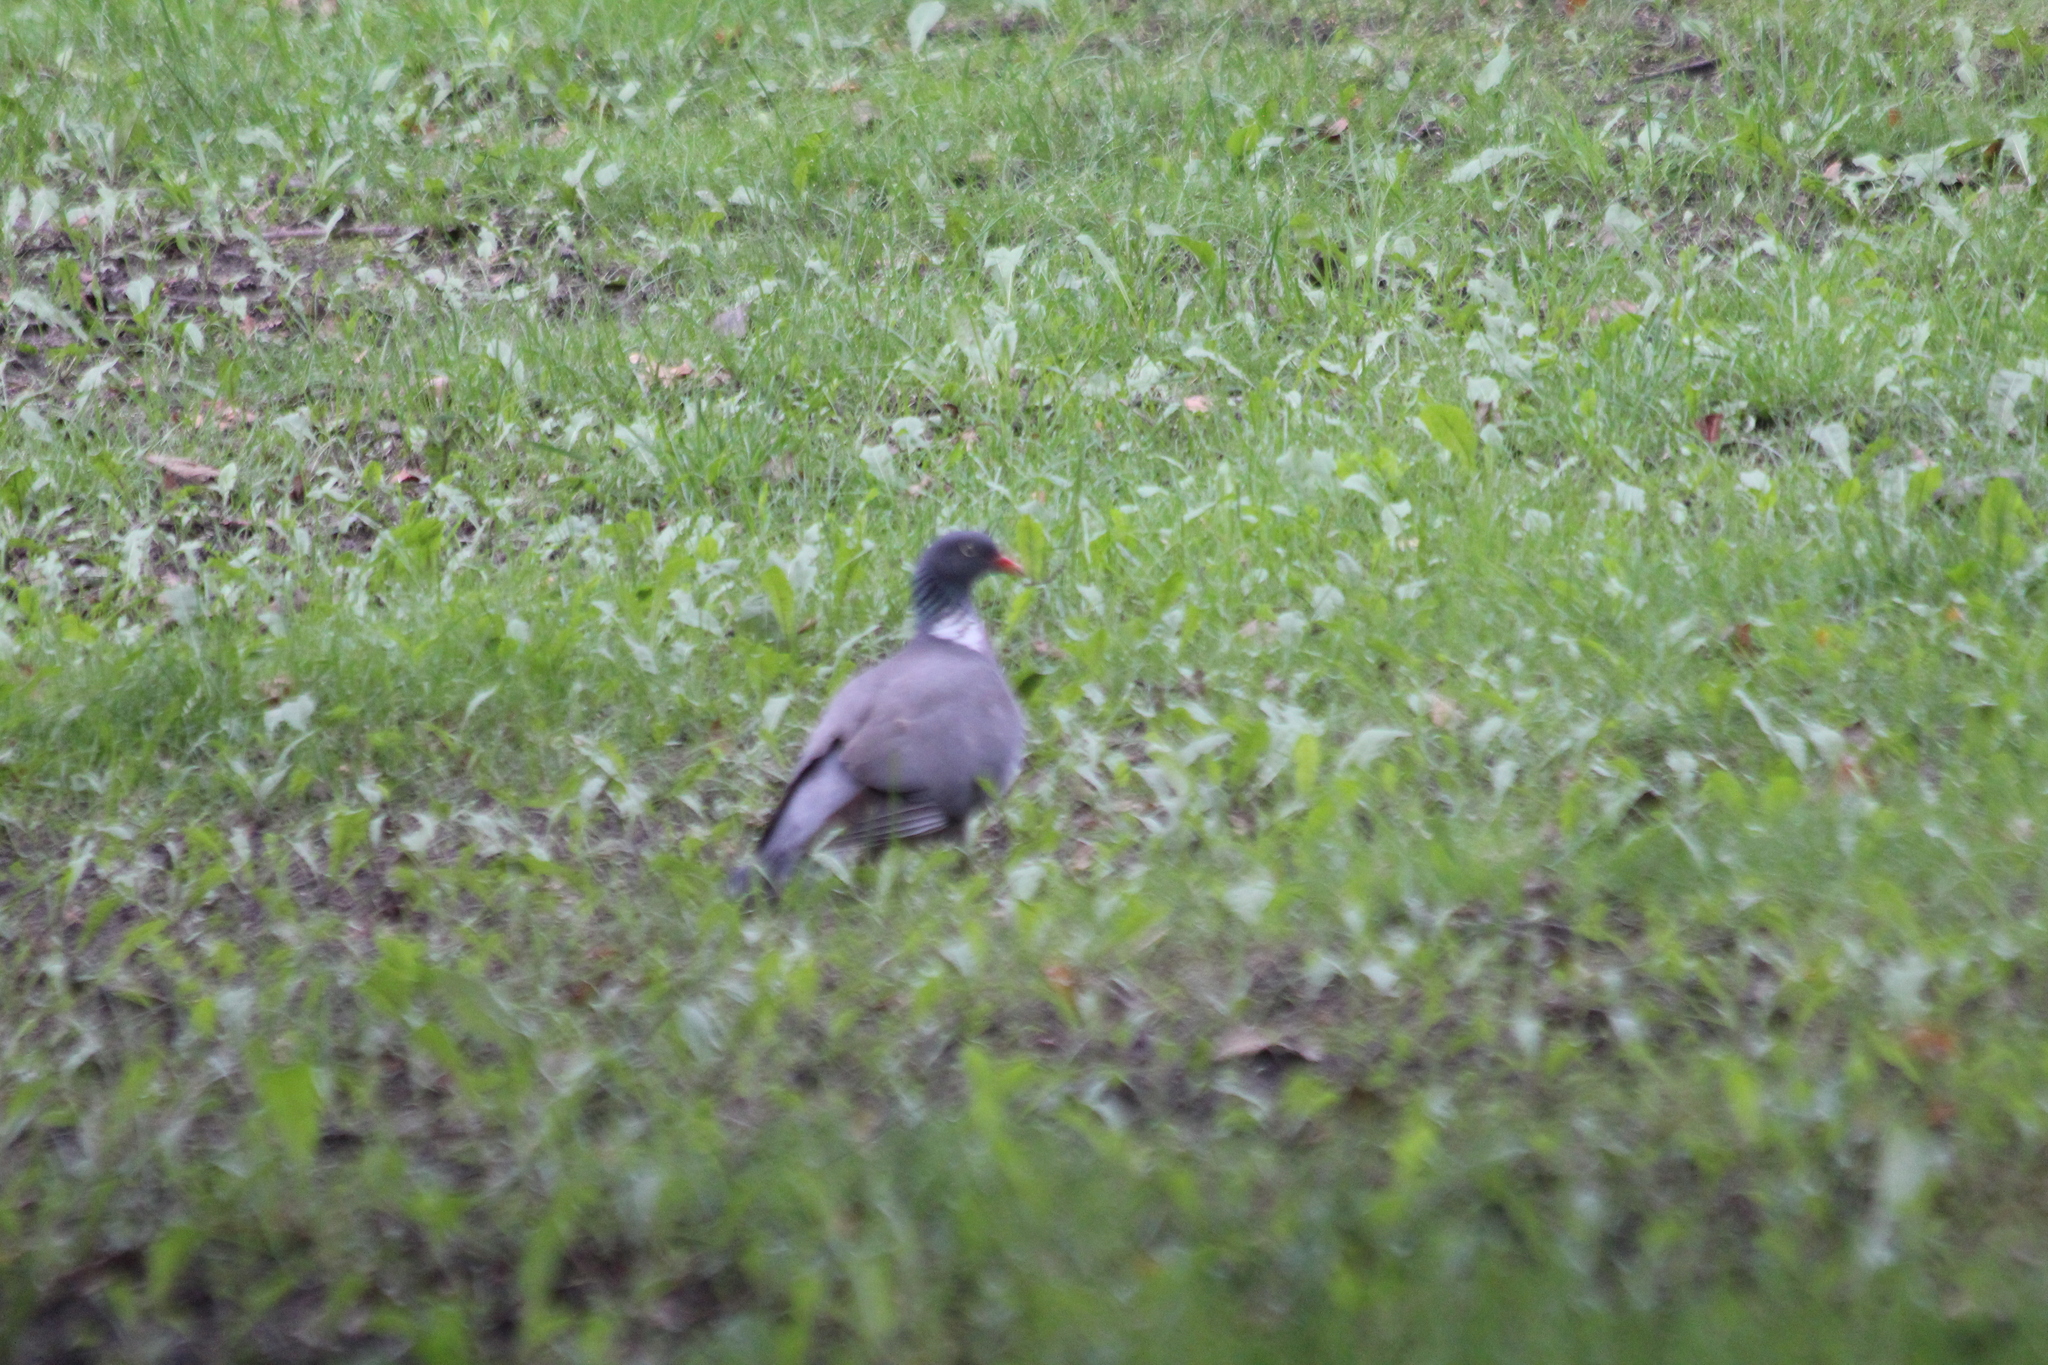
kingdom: Animalia
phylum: Chordata
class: Aves
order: Columbiformes
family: Columbidae
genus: Columba
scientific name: Columba palumbus
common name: Common wood pigeon
